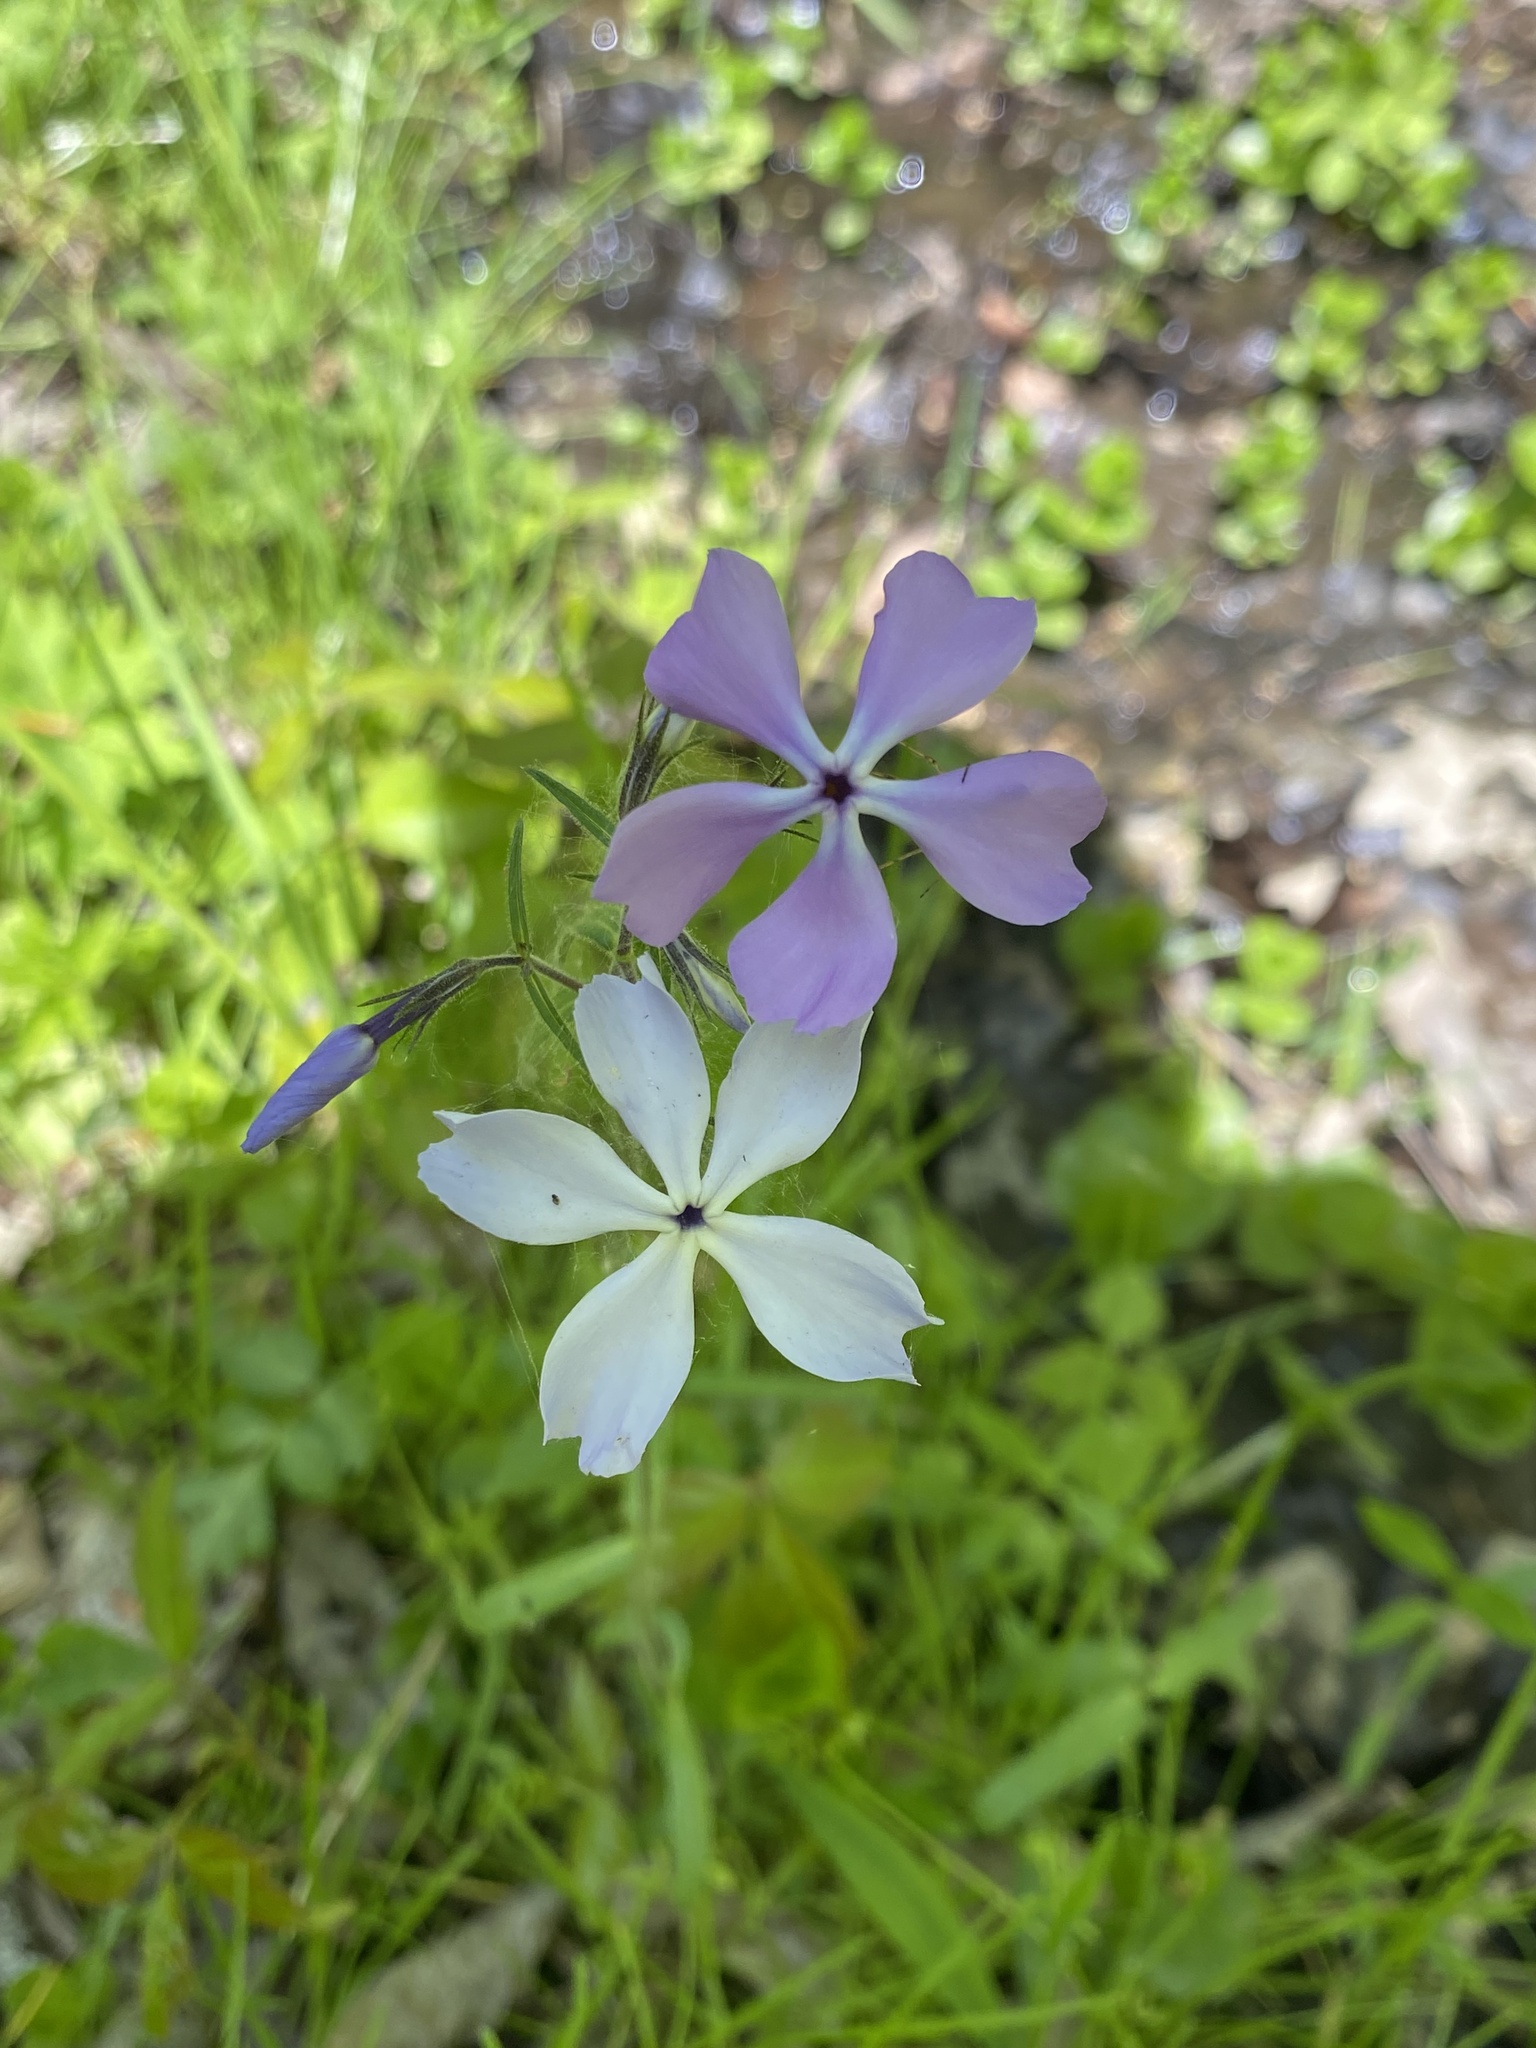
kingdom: Plantae
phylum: Tracheophyta
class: Magnoliopsida
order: Ericales
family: Polemoniaceae
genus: Phlox
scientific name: Phlox divaricata
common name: Blue phlox
